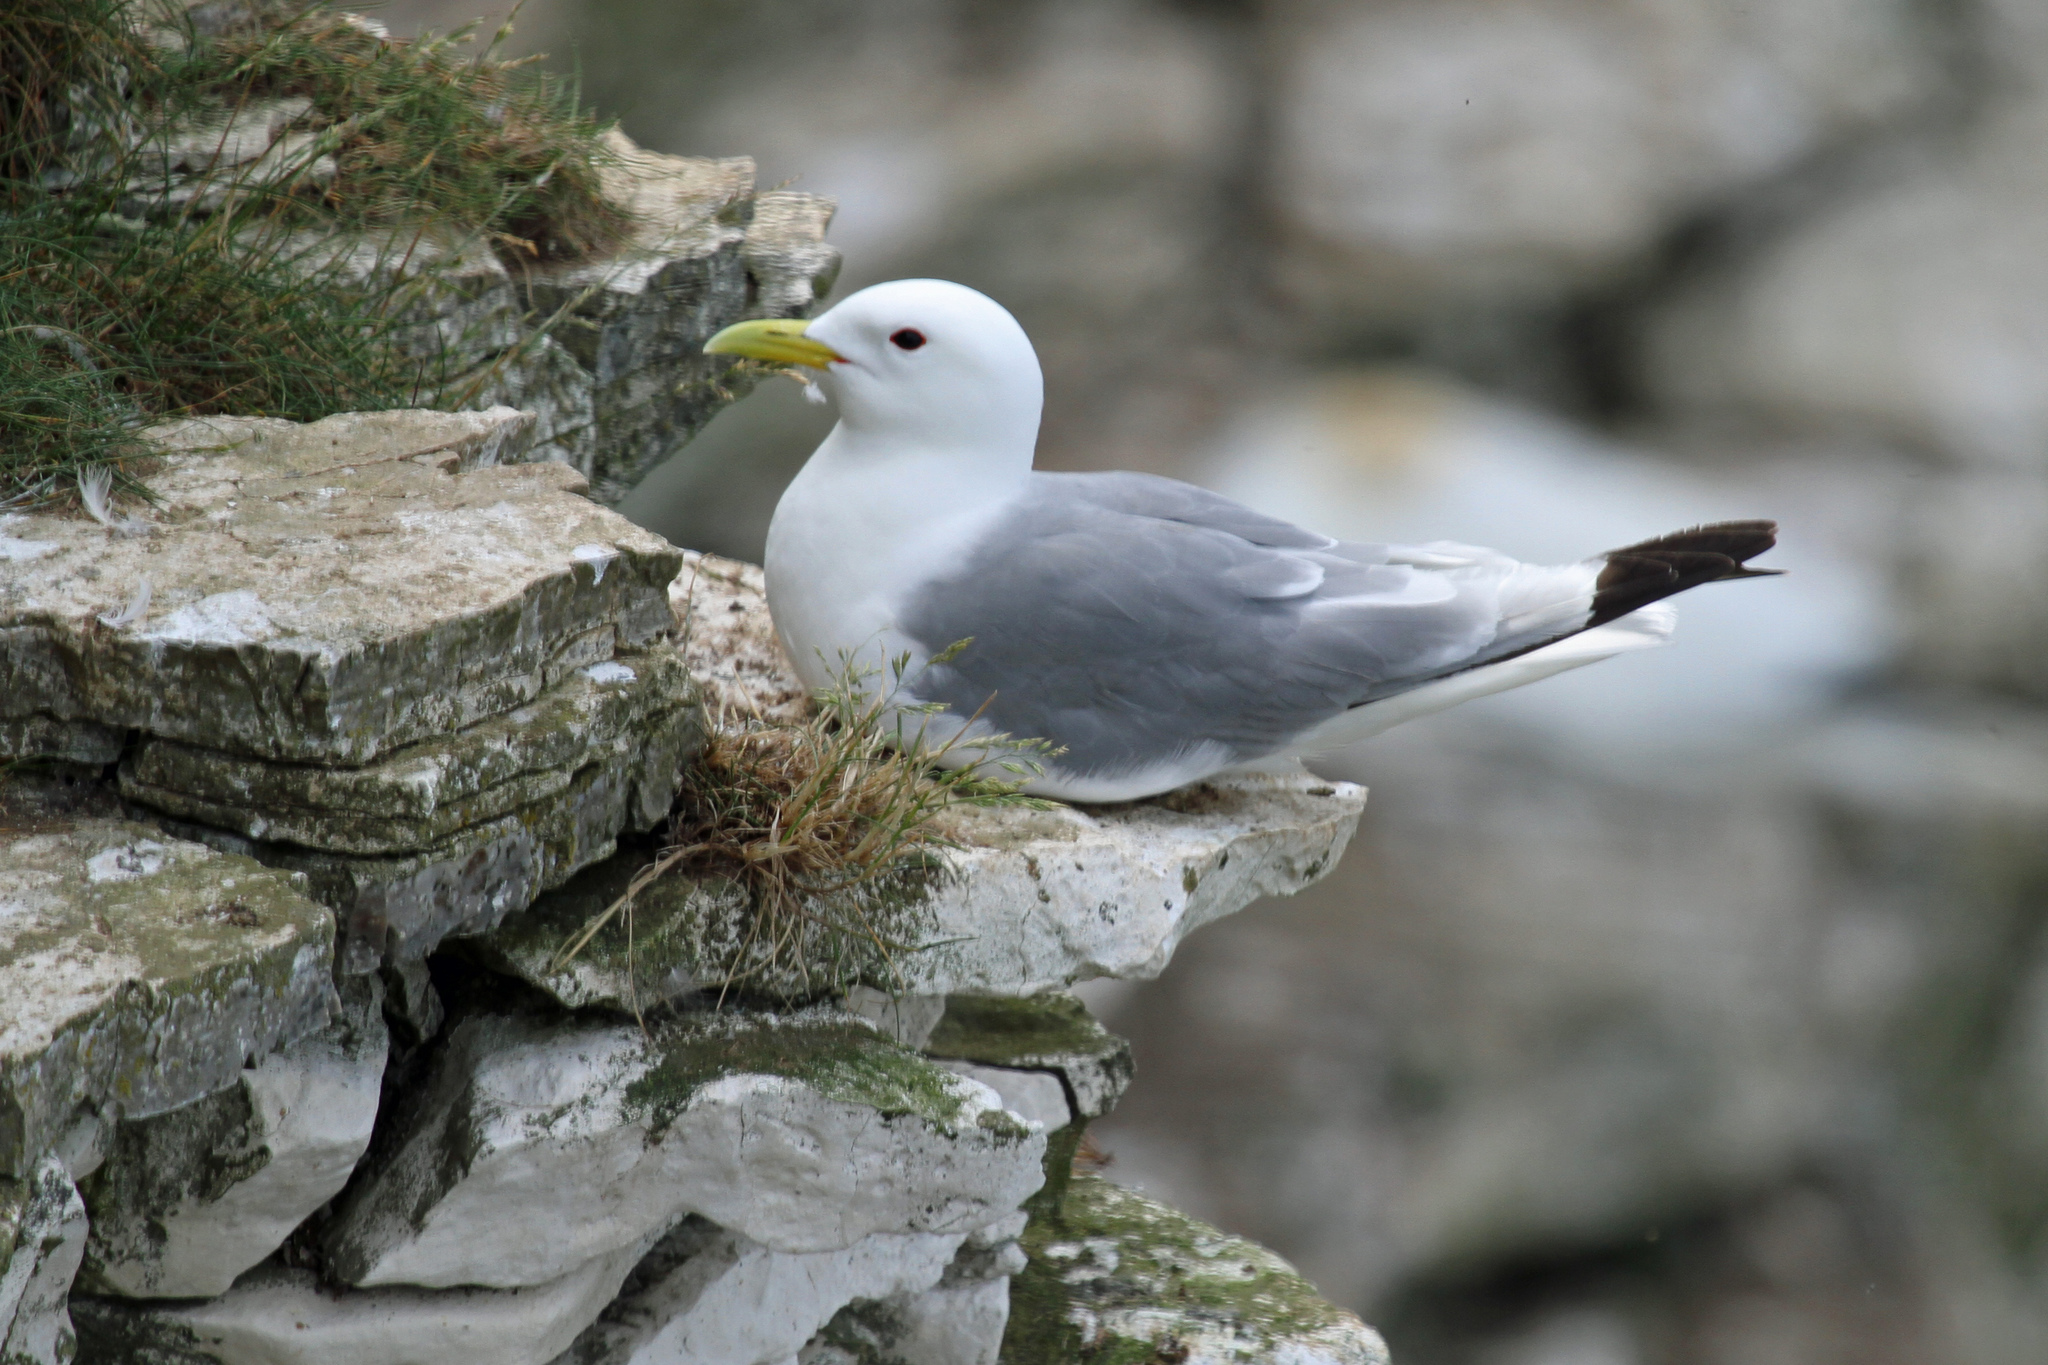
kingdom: Animalia
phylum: Chordata
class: Aves
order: Charadriiformes
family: Laridae
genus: Rissa
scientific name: Rissa tridactyla
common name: Black-legged kittiwake
